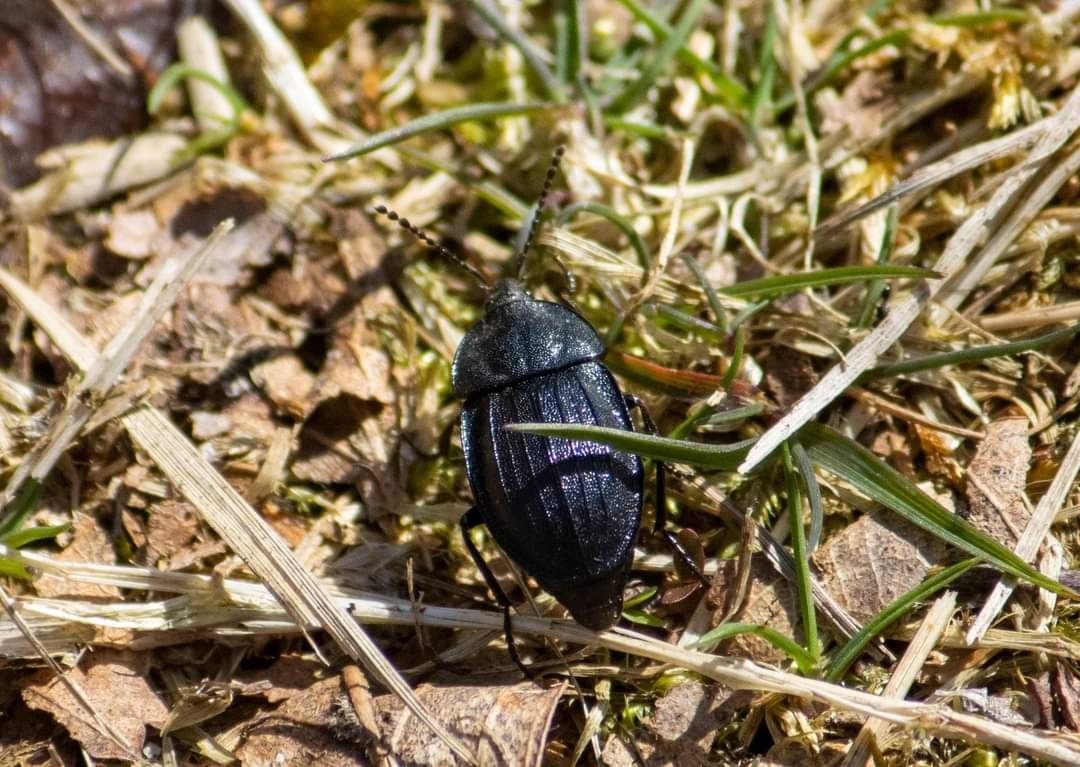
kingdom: Animalia
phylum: Arthropoda
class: Insecta
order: Coleoptera
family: Staphylinidae
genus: Silpha
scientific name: Silpha atrata
